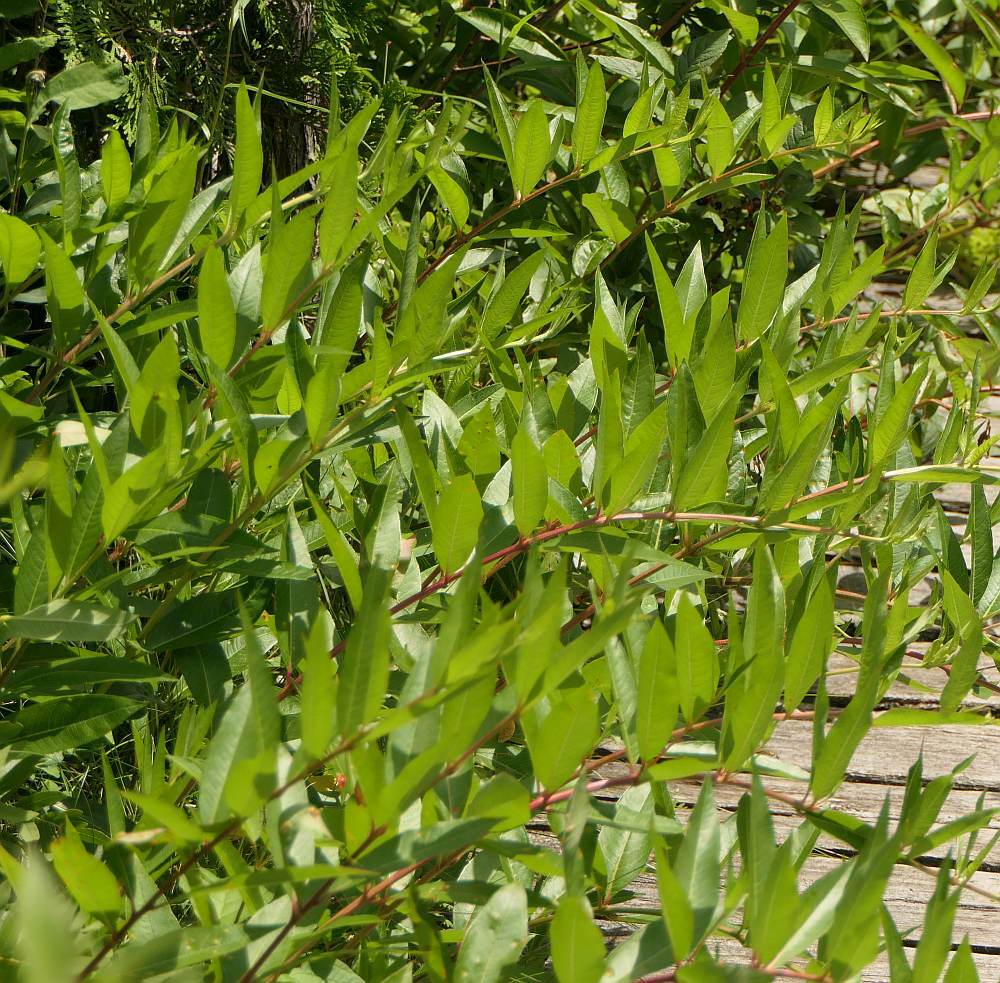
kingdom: Plantae
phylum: Tracheophyta
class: Magnoliopsida
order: Myrtales
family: Lythraceae
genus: Decodon
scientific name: Decodon verticillatus
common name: Hairy swamp loosestrife
